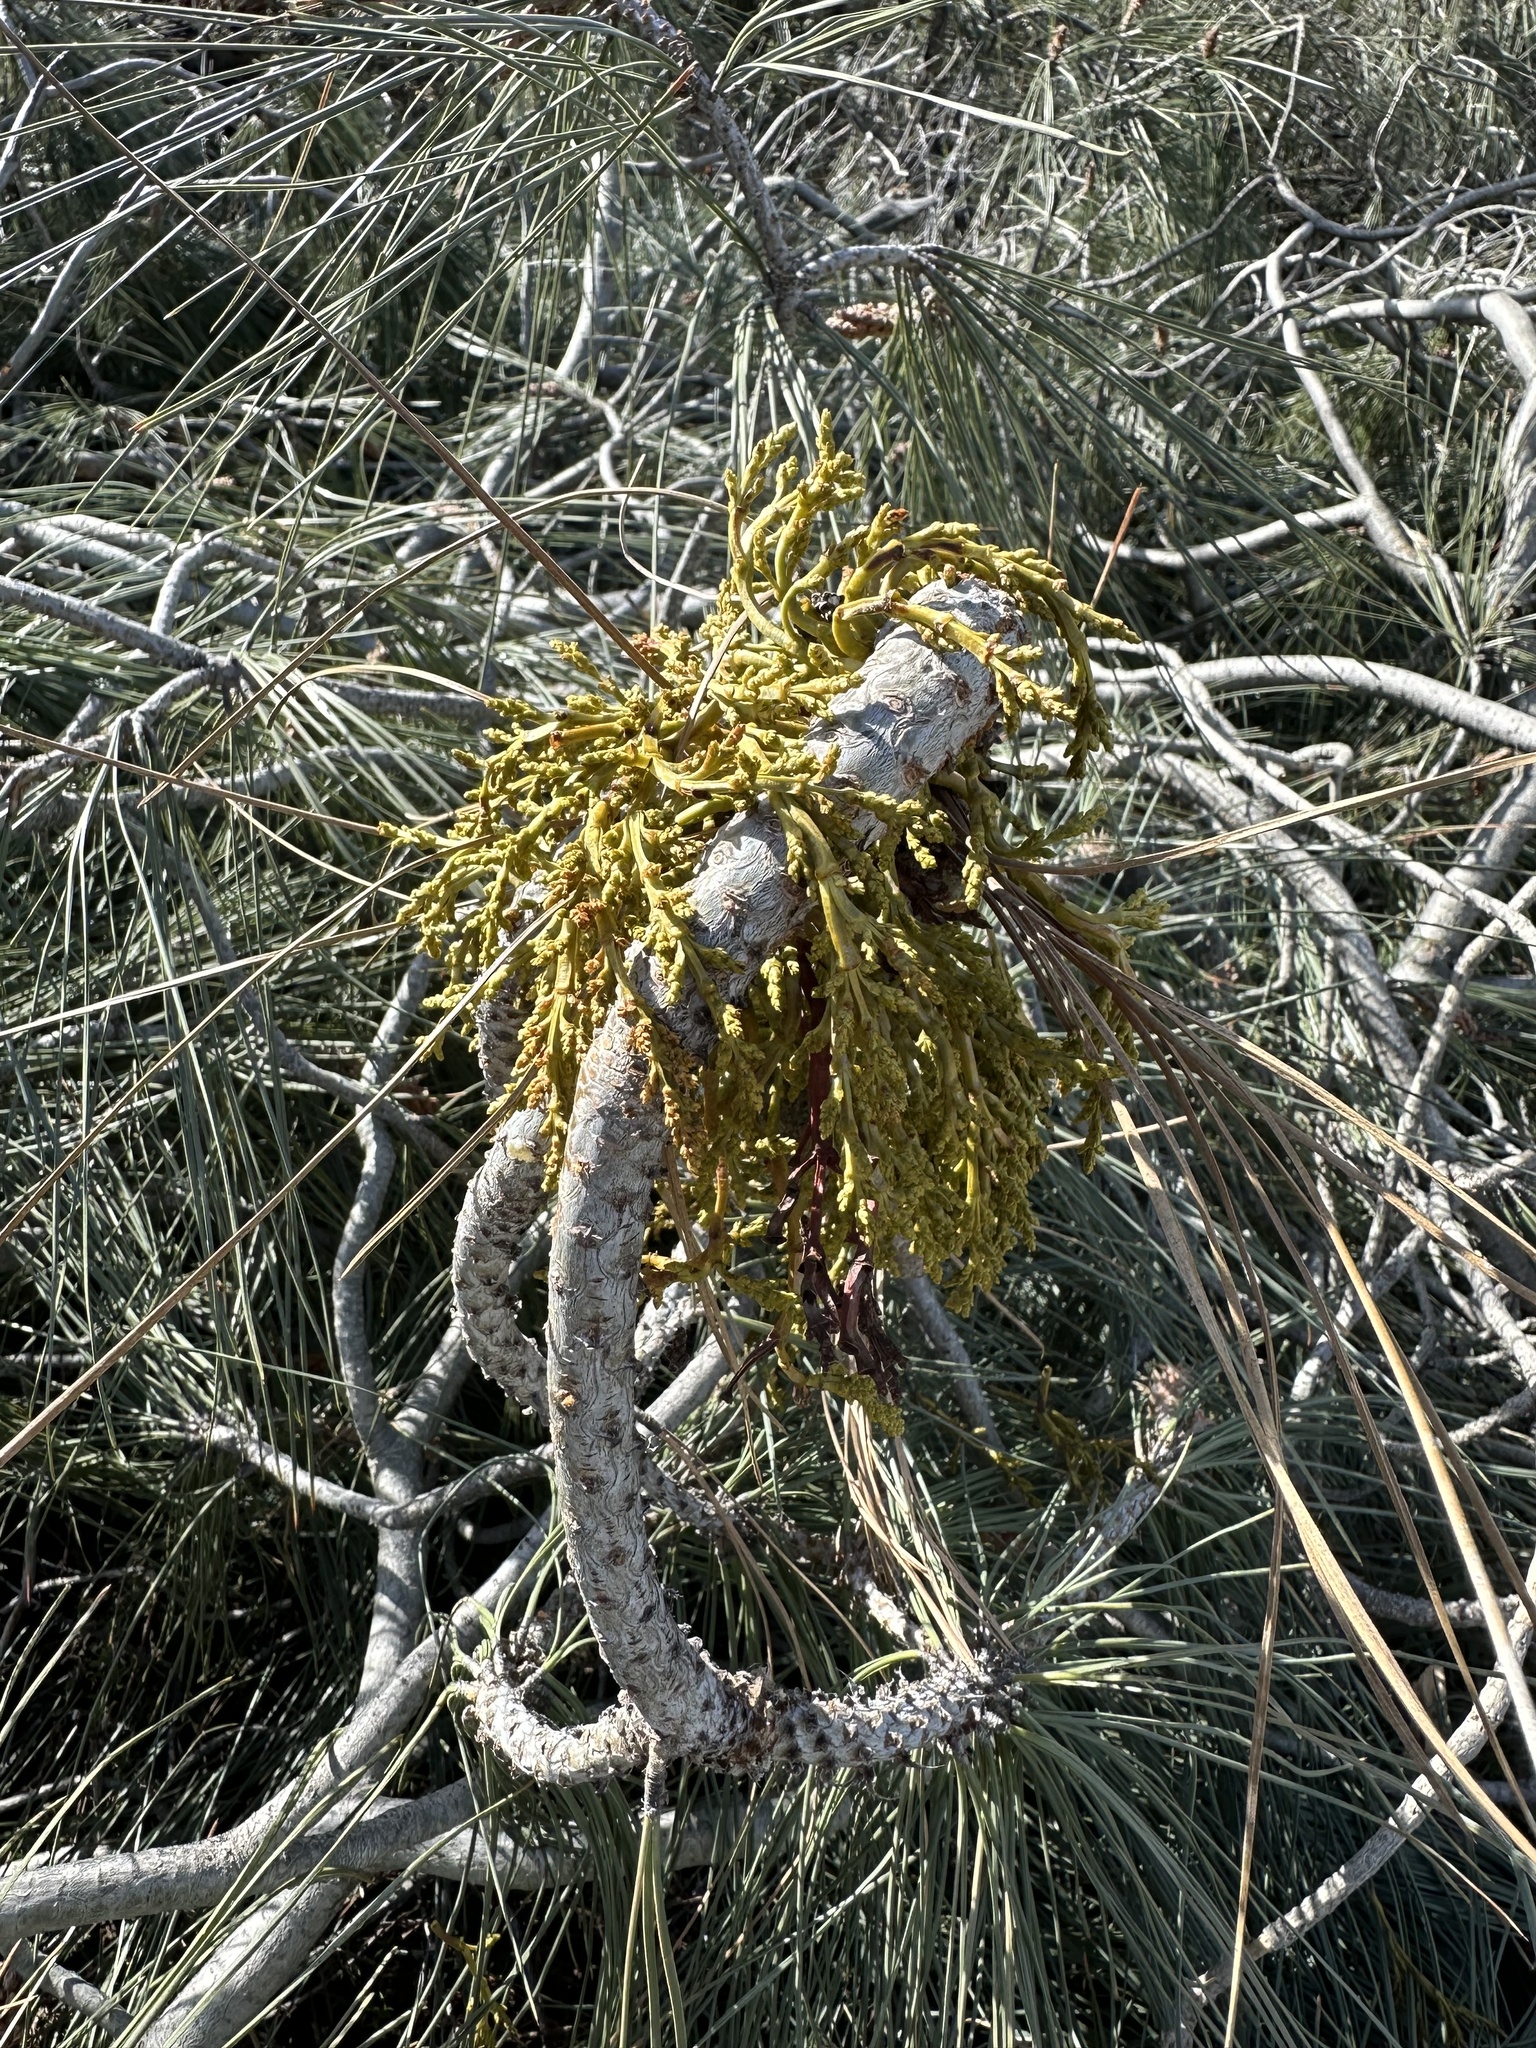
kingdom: Plantae
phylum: Tracheophyta
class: Magnoliopsida
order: Santalales
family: Viscaceae
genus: Arceuthobium
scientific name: Arceuthobium campylopodum
